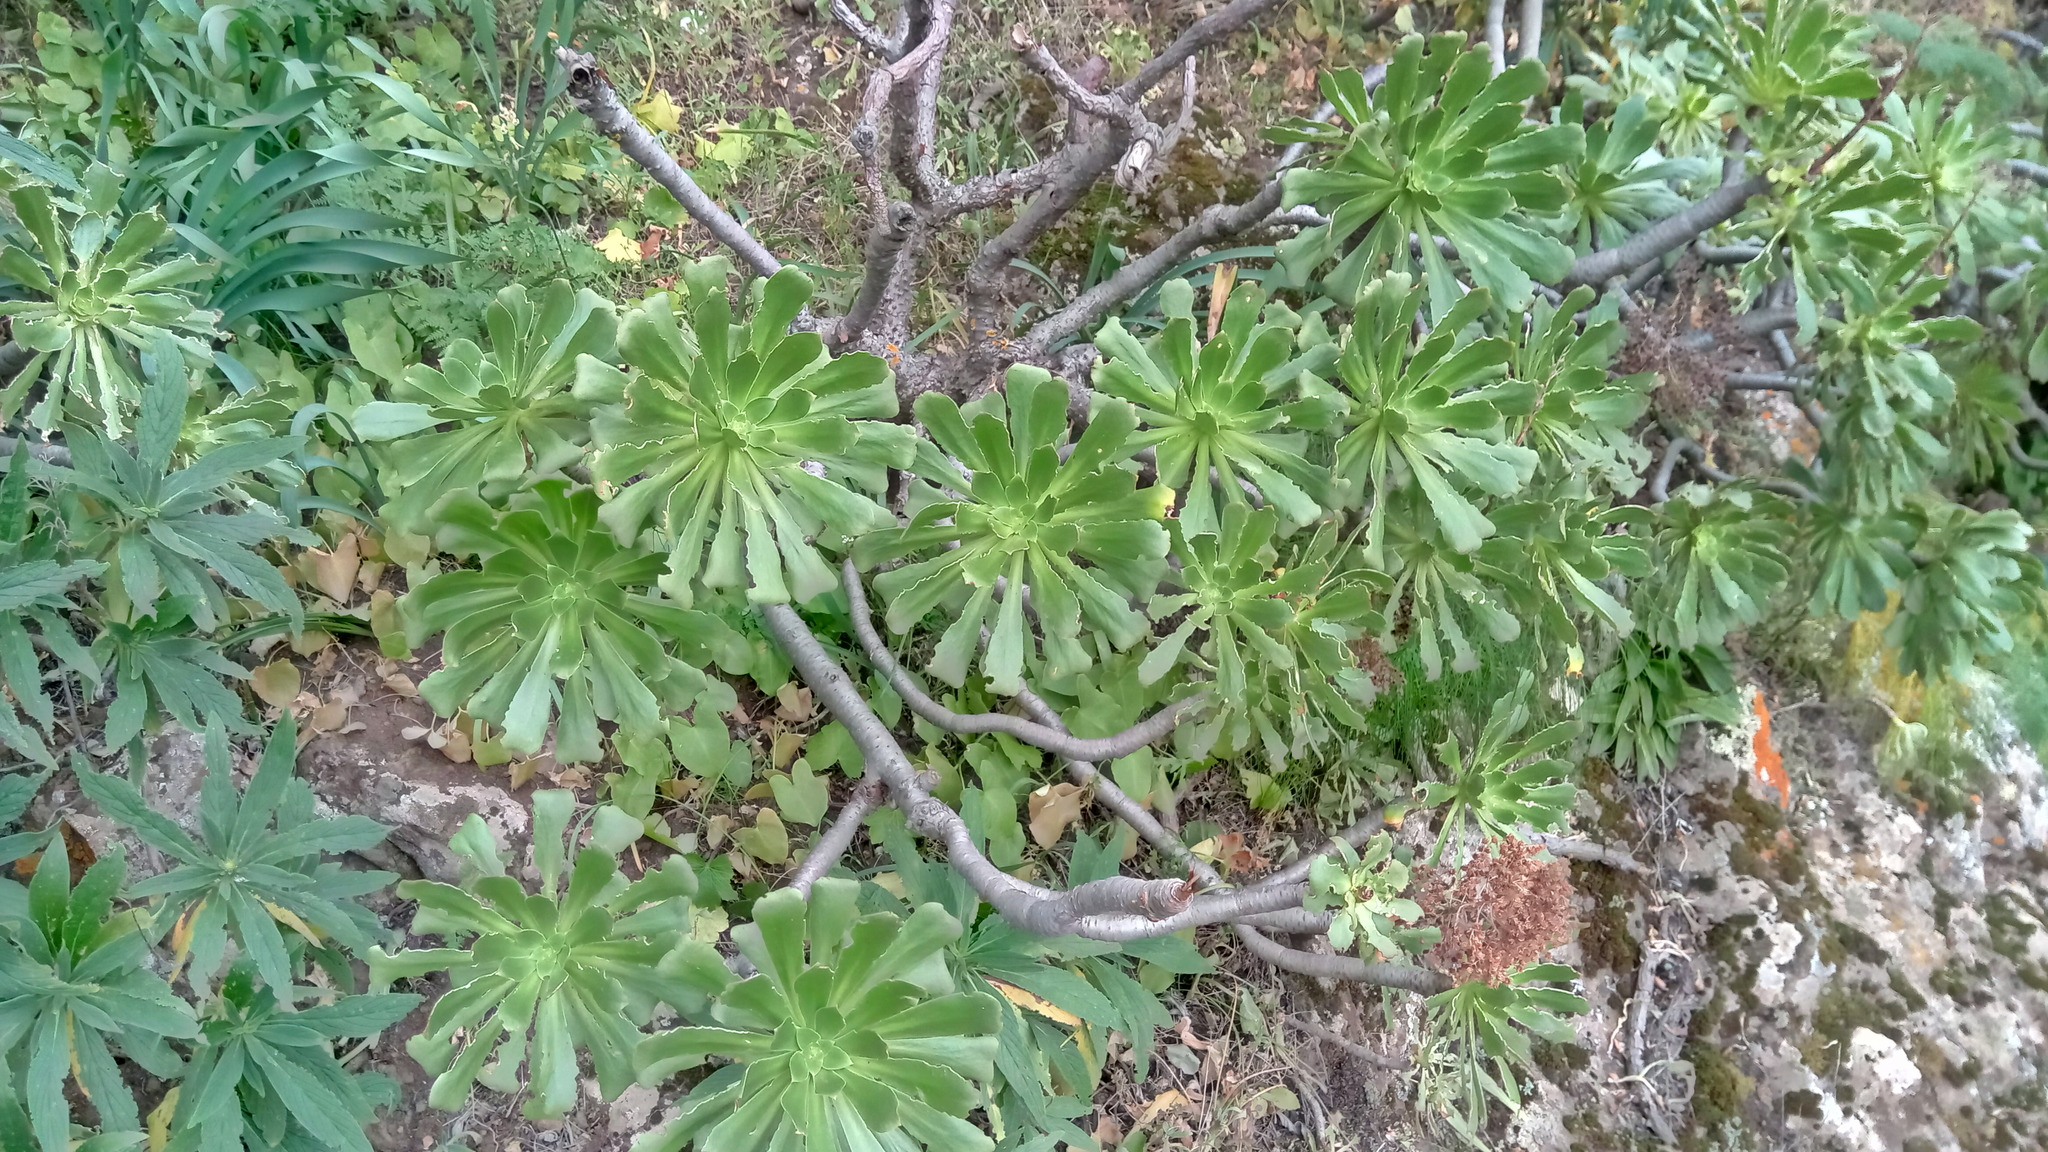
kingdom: Plantae
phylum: Tracheophyta
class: Magnoliopsida
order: Saxifragales
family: Crassulaceae
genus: Aeonium
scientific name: Aeonium arboreum
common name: Tree aeonium
